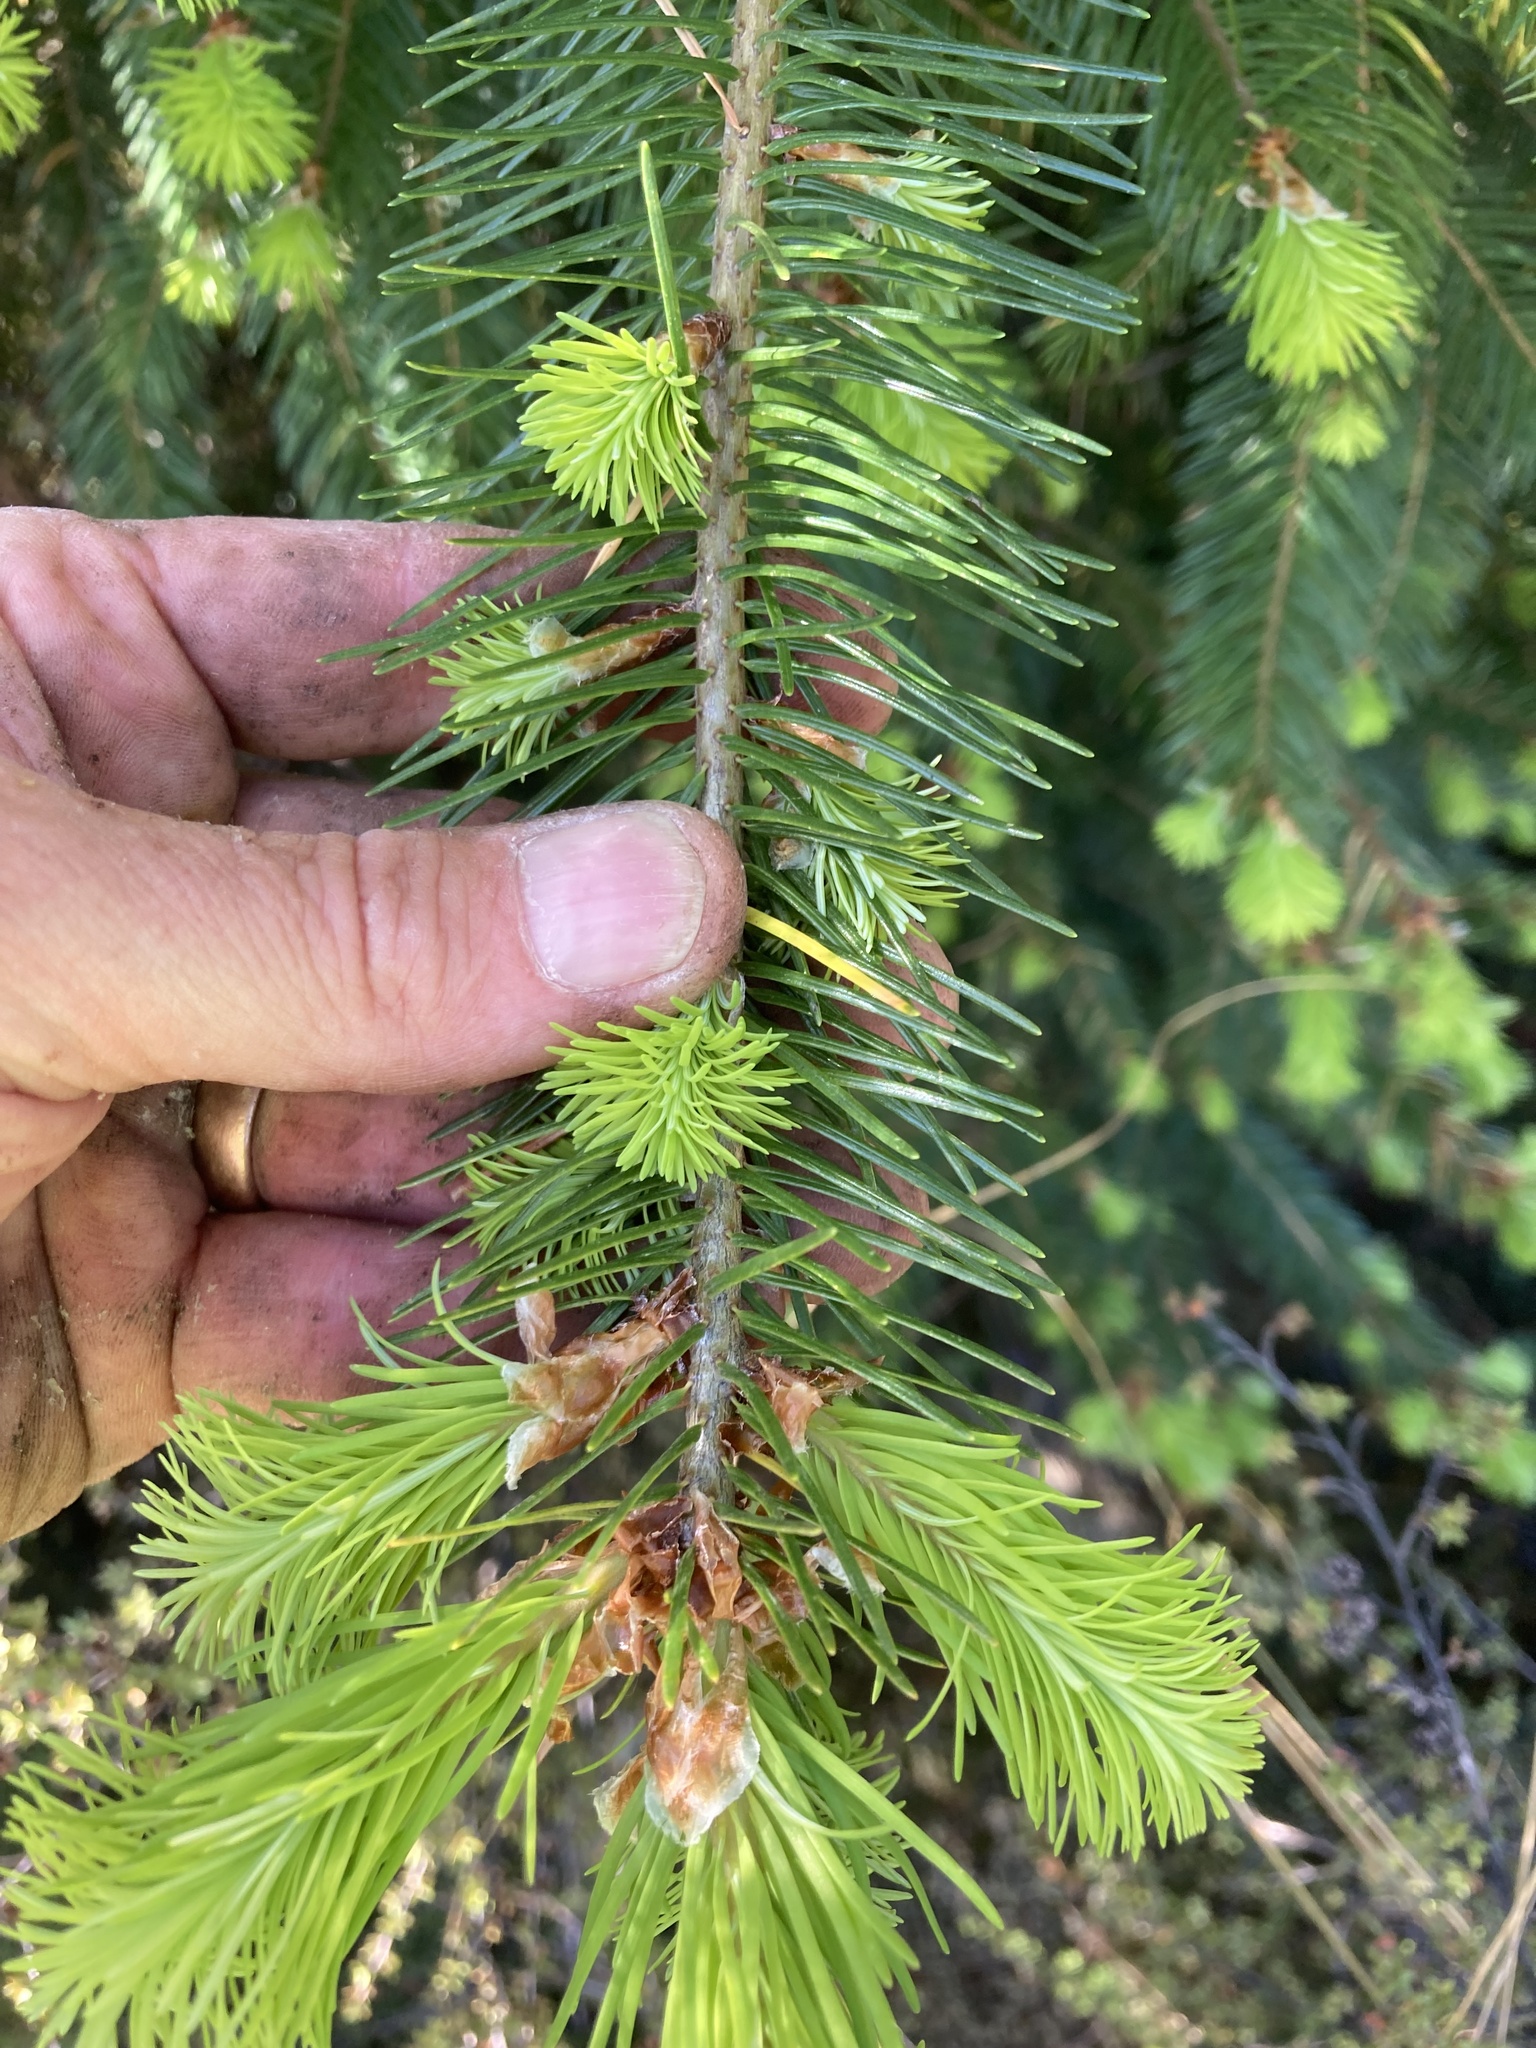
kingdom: Plantae
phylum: Tracheophyta
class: Pinopsida
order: Pinales
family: Pinaceae
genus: Pseudotsuga
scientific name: Pseudotsuga menziesii
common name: Douglas fir
